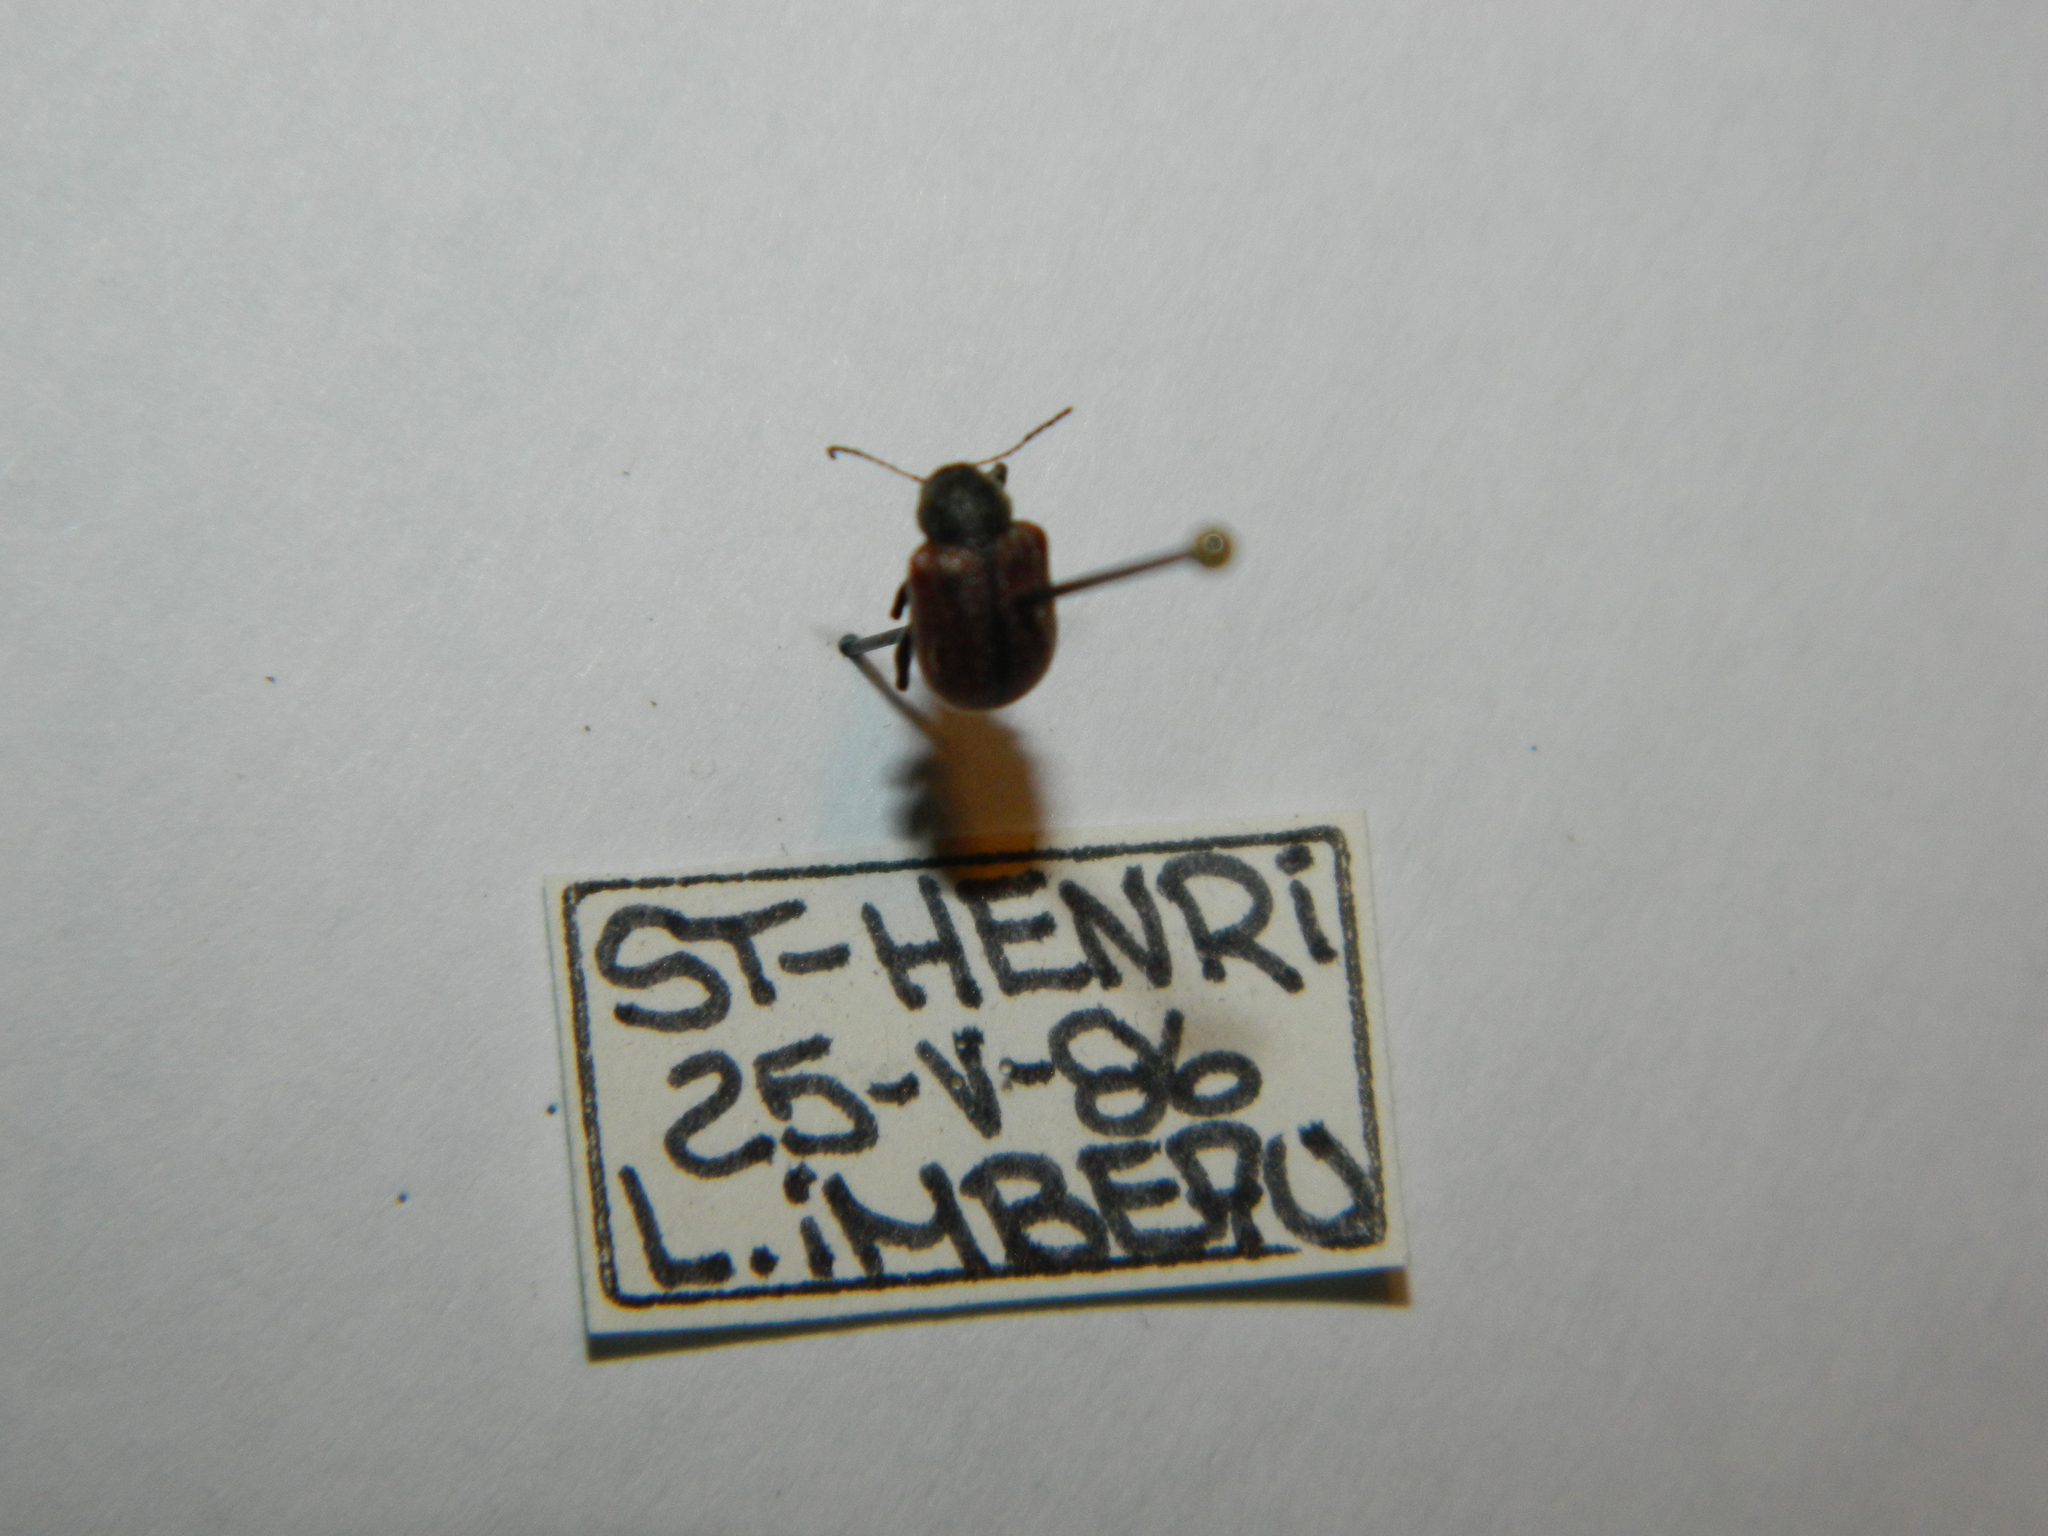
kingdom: Animalia
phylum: Arthropoda
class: Insecta
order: Coleoptera
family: Chrysomelidae
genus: Bromius
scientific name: Bromius obscurus
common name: Western grape rootworm
